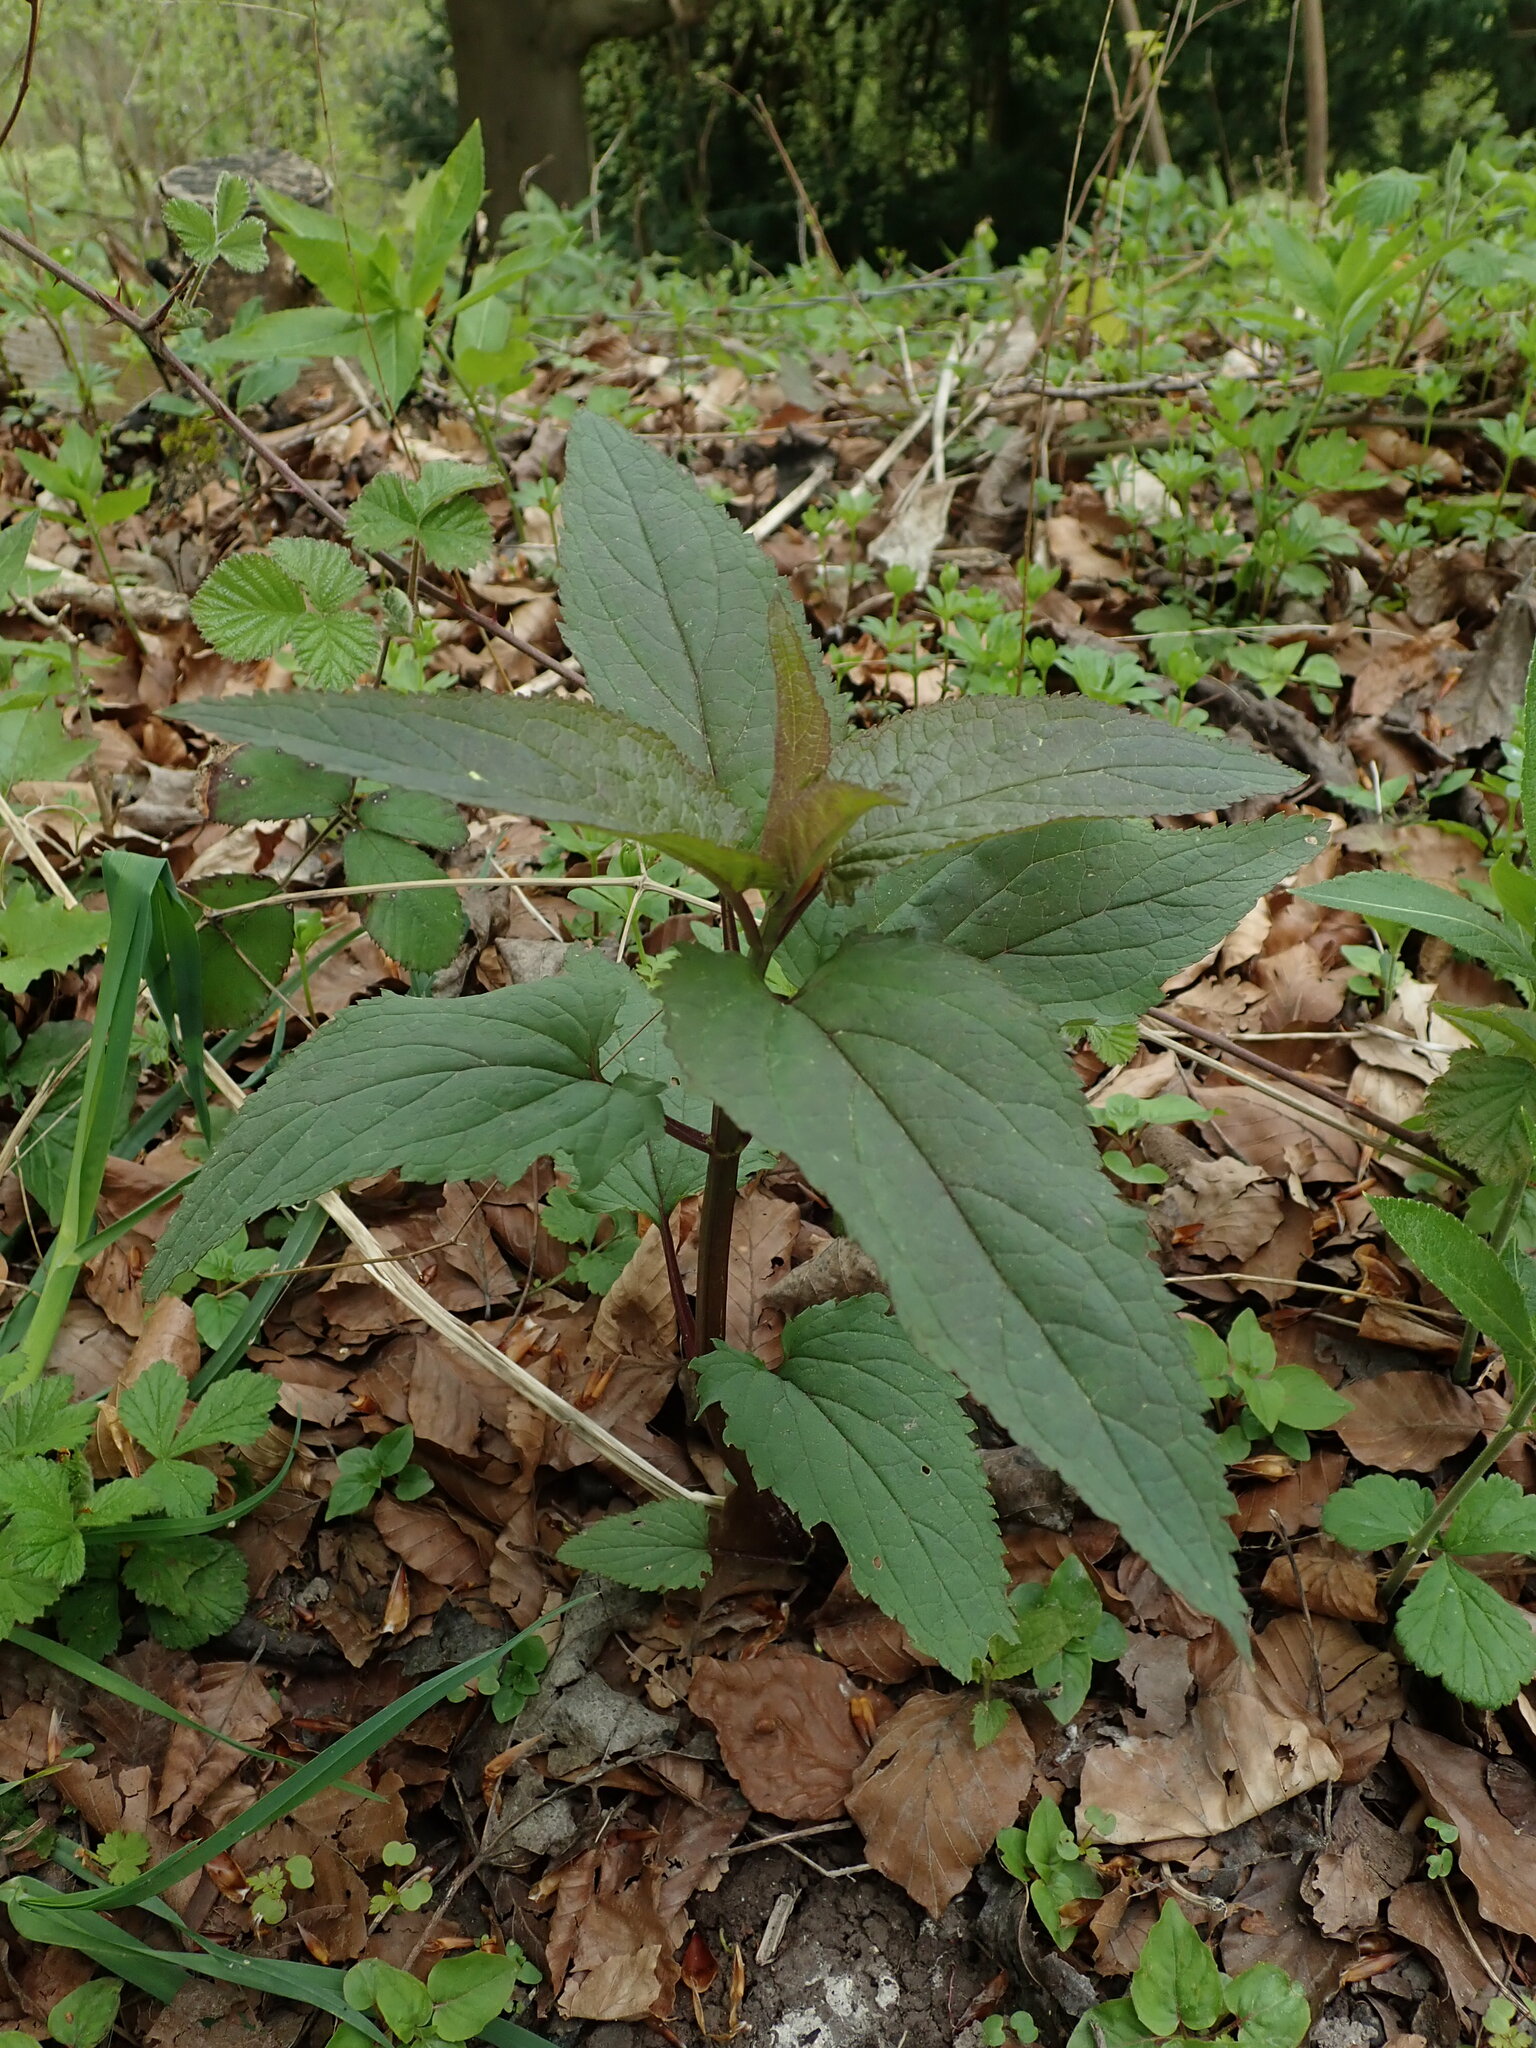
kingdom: Plantae
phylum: Tracheophyta
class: Magnoliopsida
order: Lamiales
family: Scrophulariaceae
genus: Scrophularia
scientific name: Scrophularia nodosa
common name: Common figwort
